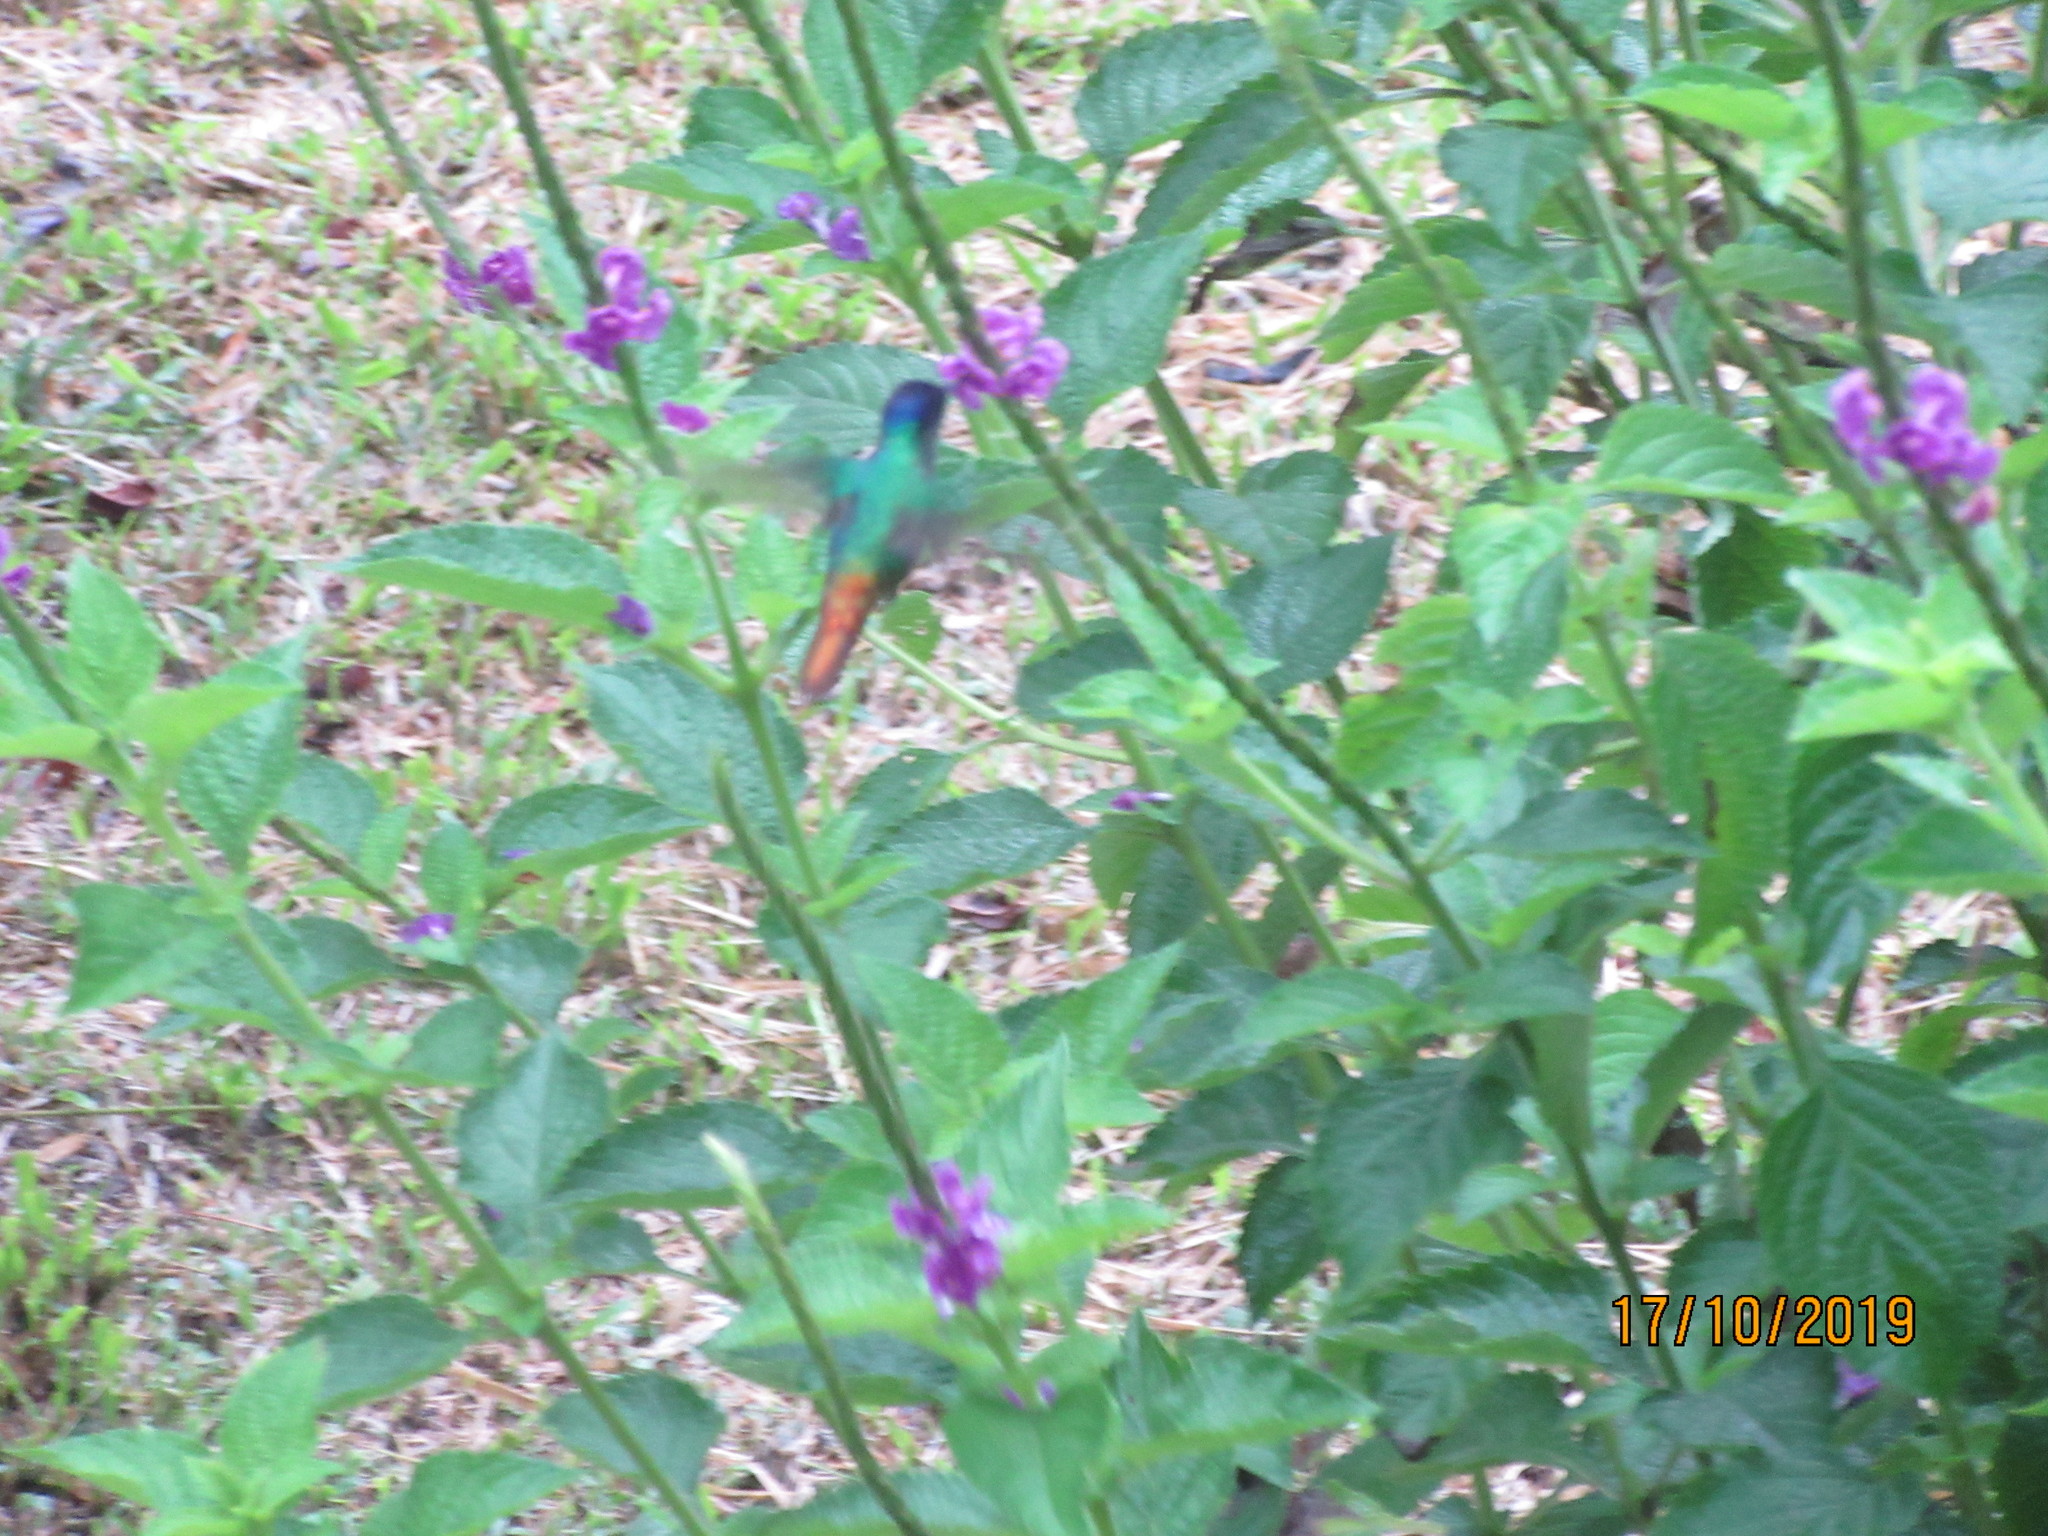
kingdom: Animalia
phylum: Chordata
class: Aves
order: Apodiformes
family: Trochilidae
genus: Chrysuronia
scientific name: Chrysuronia oenone
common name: Golden-tailed sapphire
